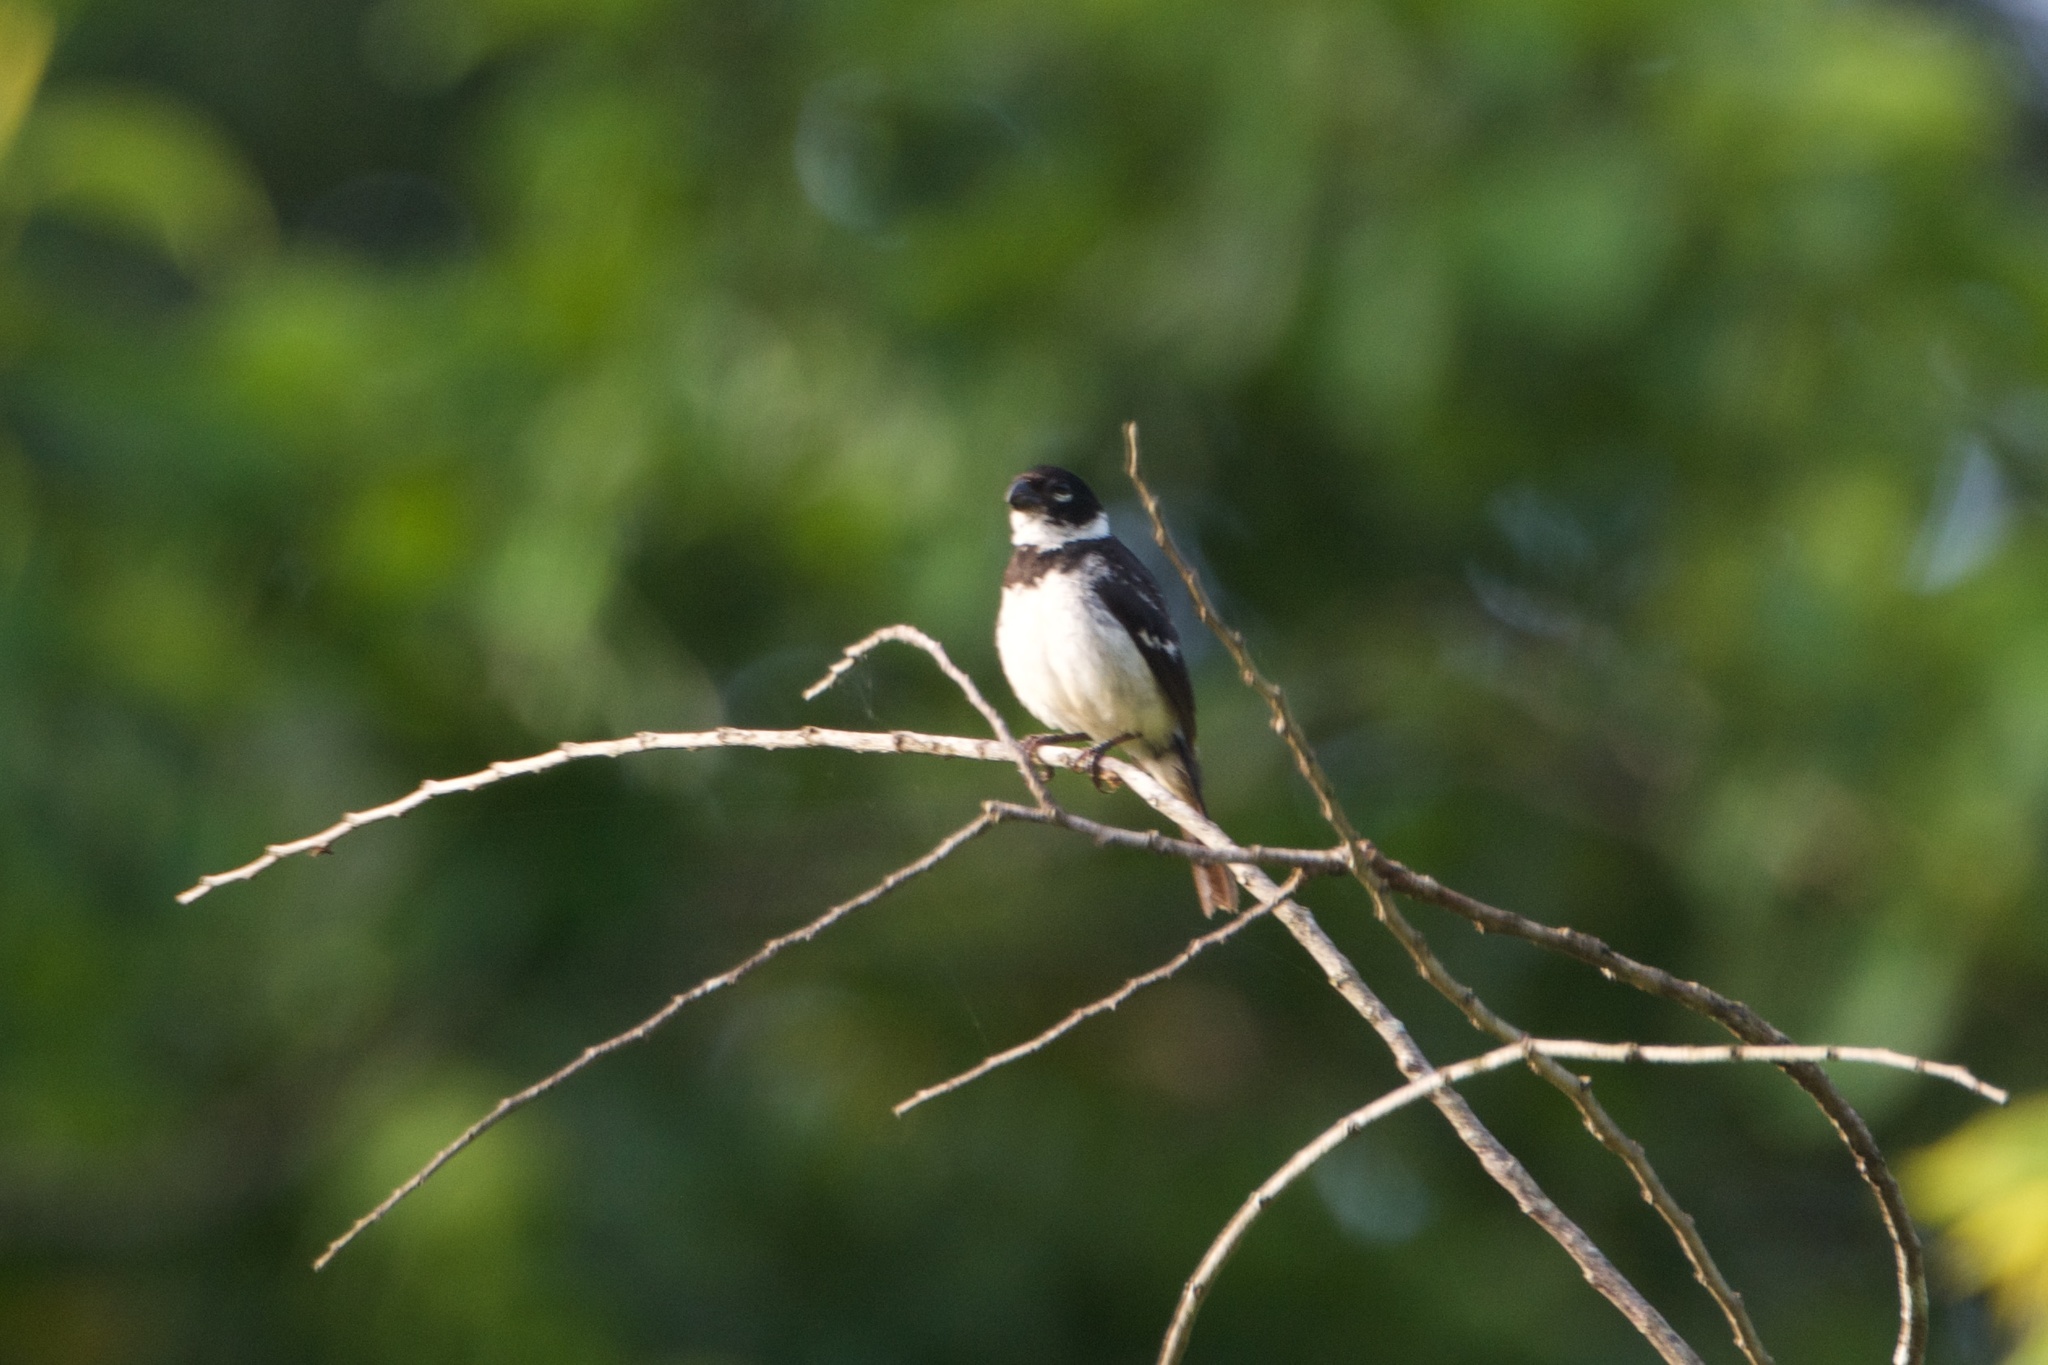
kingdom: Animalia
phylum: Chordata
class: Aves
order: Passeriformes
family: Thraupidae
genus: Sporophila
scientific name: Sporophila morelleti
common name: Morelet's seedeater
